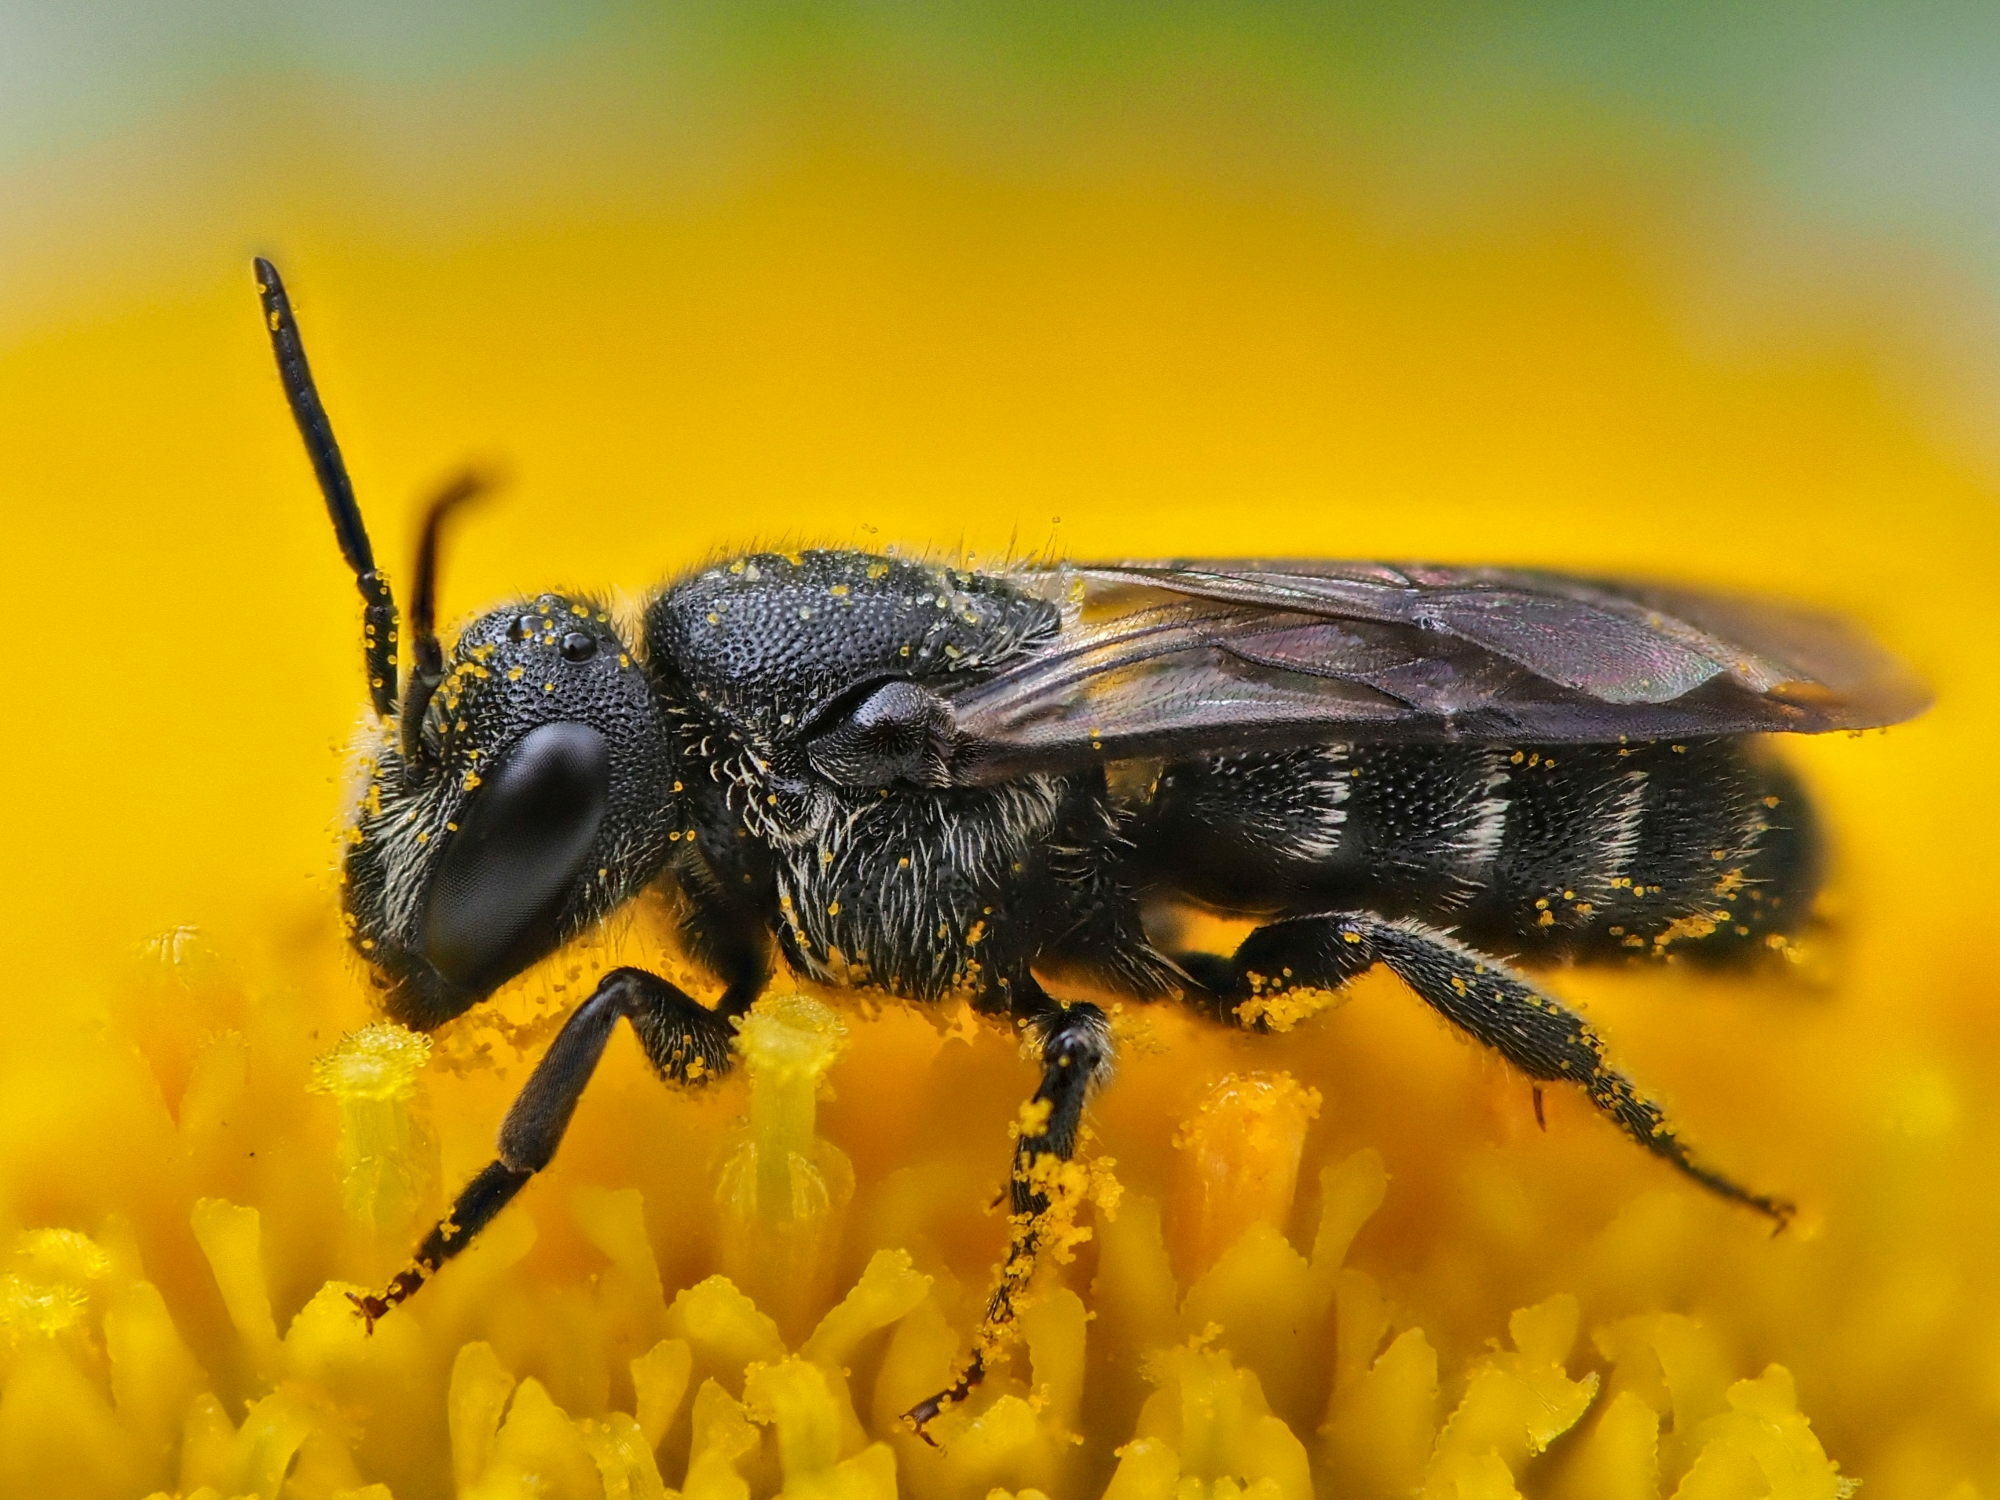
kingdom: Animalia
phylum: Arthropoda
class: Insecta
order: Hymenoptera
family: Megachilidae
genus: Stelis
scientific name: Stelis breviuscula
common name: Little dark bee
